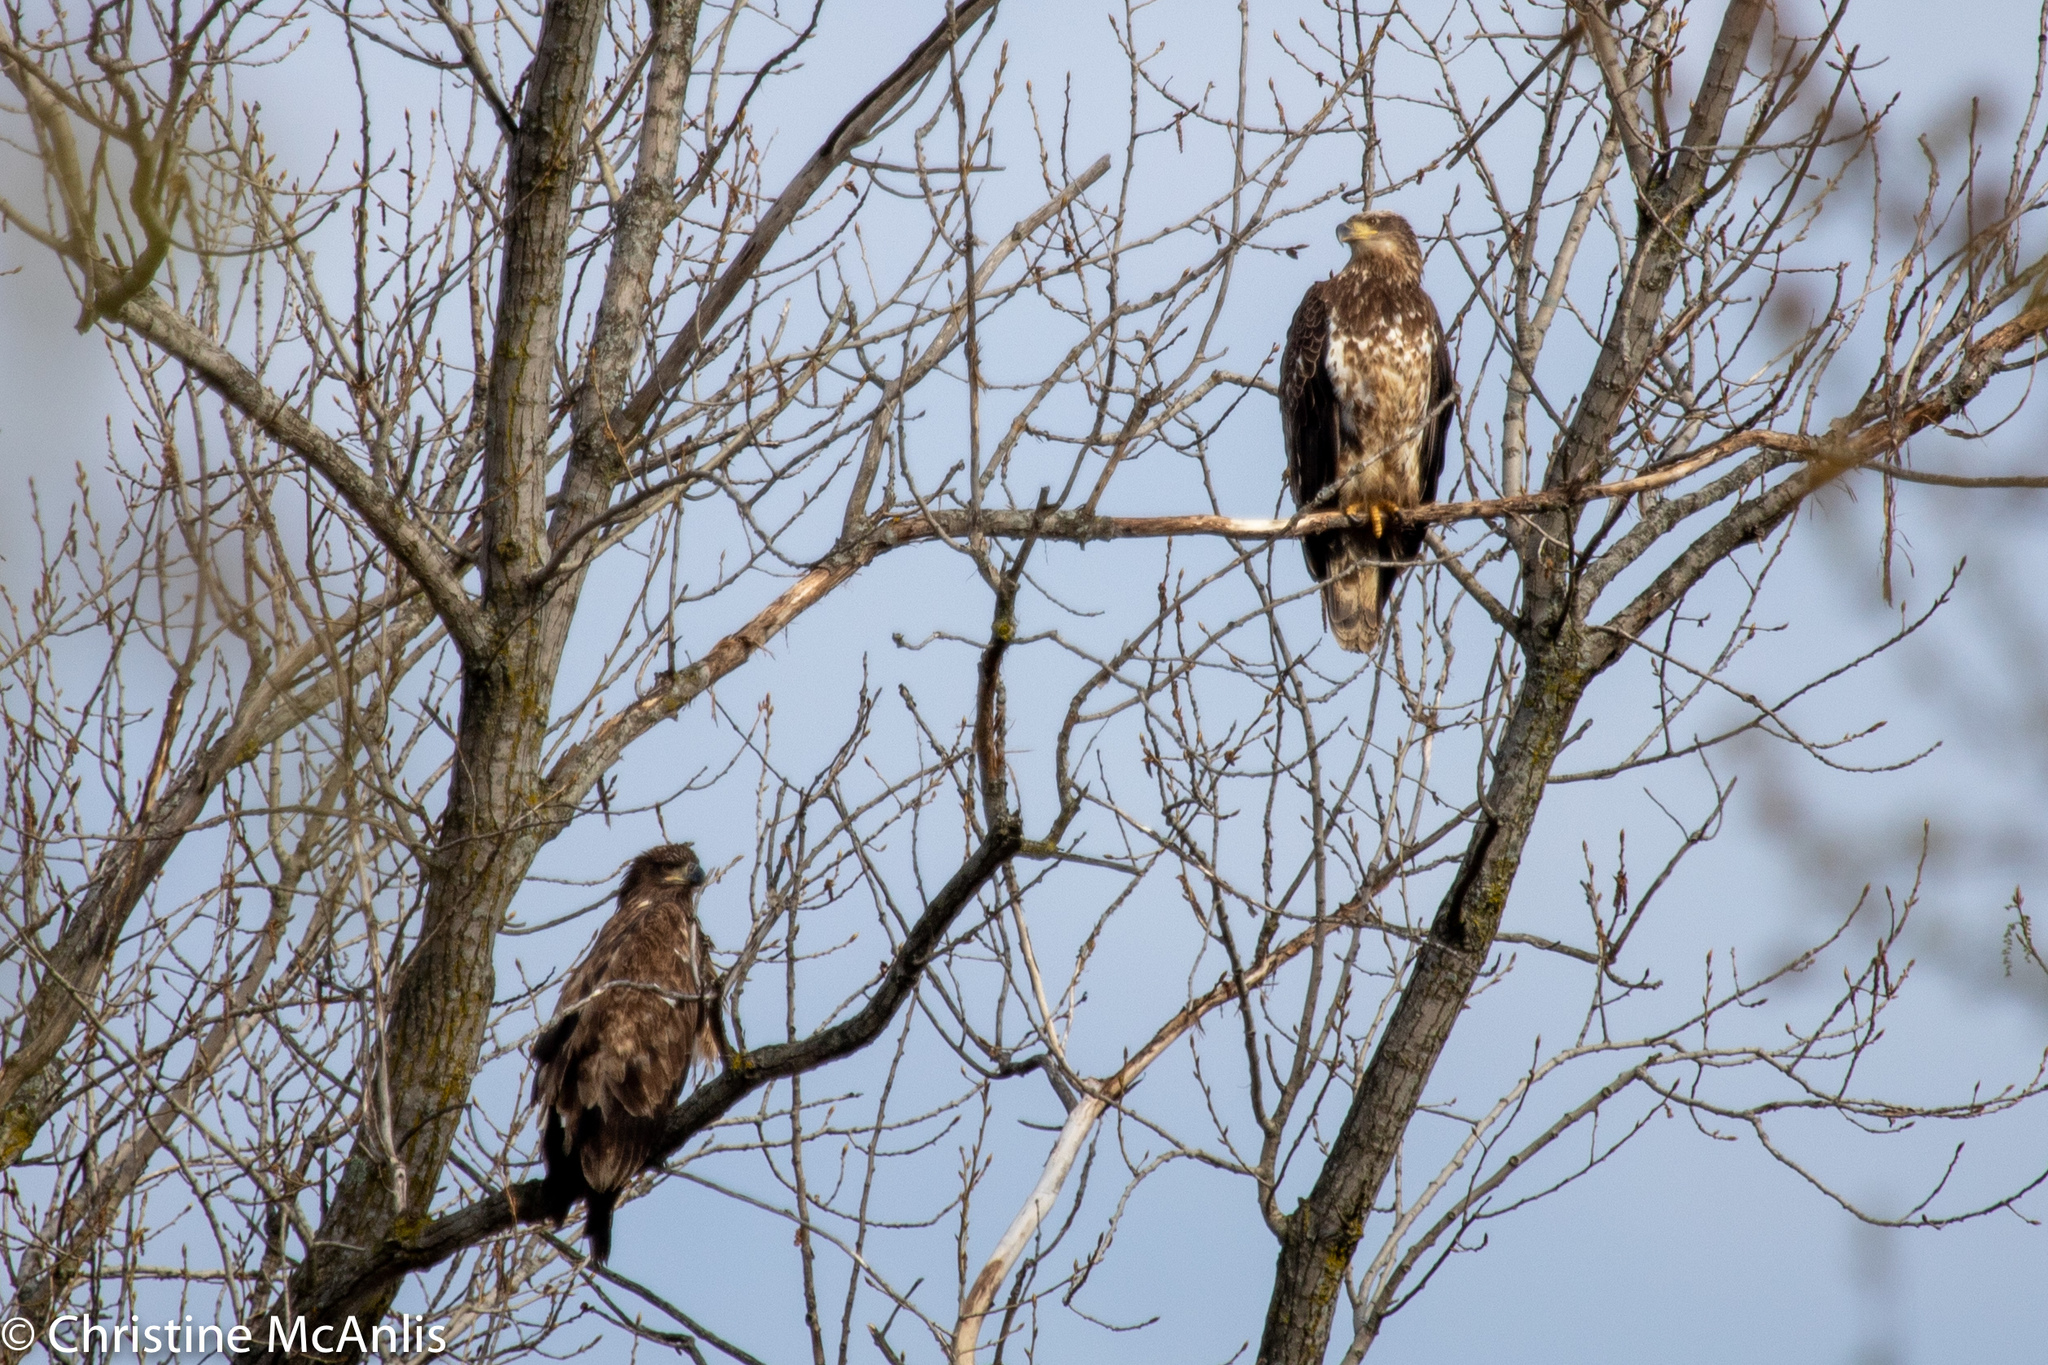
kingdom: Animalia
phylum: Chordata
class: Aves
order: Accipitriformes
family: Accipitridae
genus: Haliaeetus
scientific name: Haliaeetus leucocephalus
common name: Bald eagle
